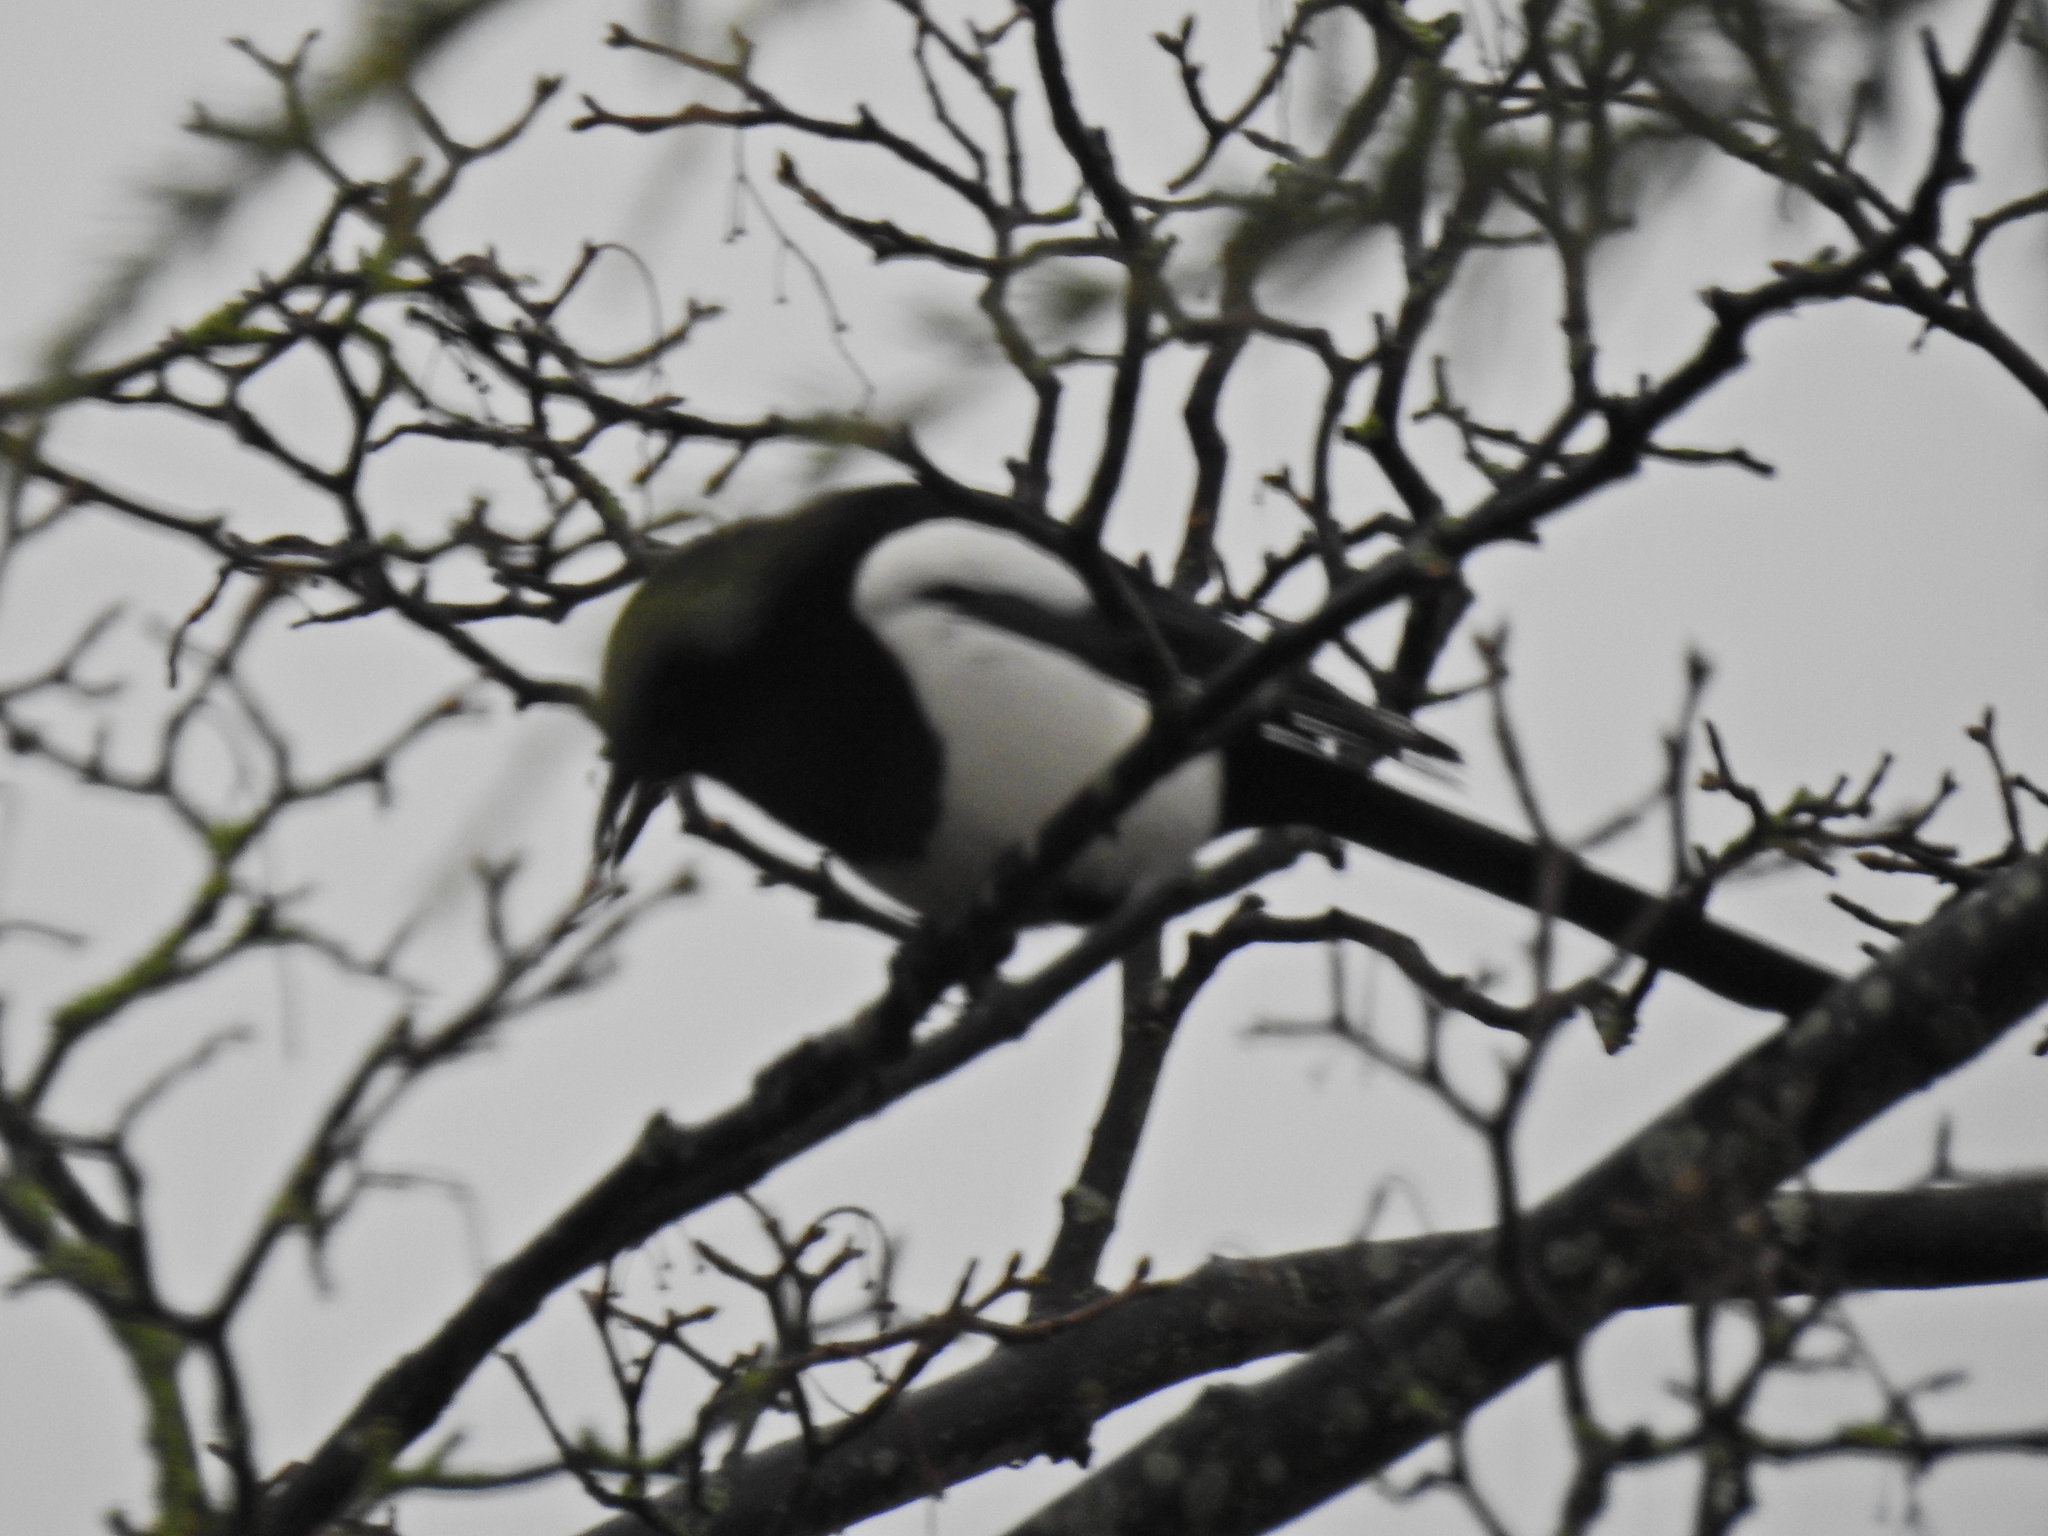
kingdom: Animalia
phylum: Chordata
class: Aves
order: Passeriformes
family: Corvidae
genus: Pica
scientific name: Pica pica
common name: Eurasian magpie
